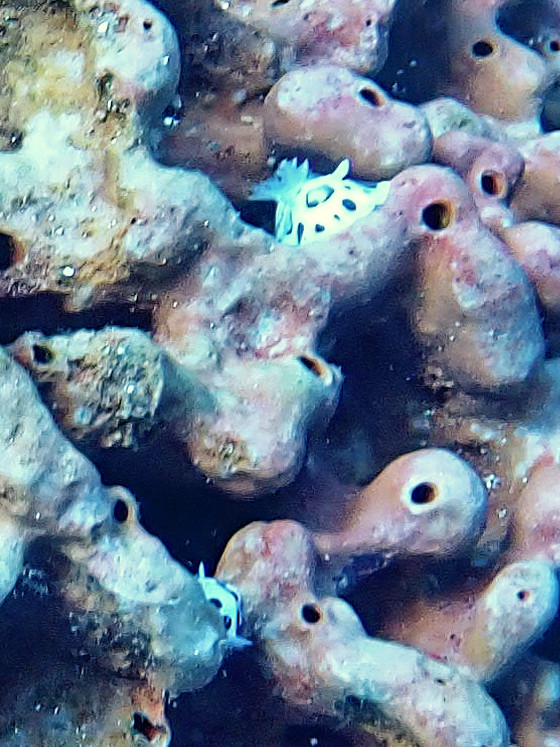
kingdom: Animalia
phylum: Mollusca
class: Gastropoda
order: Nudibranchia
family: Discodorididae
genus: Peltodoris
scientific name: Peltodoris atromaculata
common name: Swiss cow nudibranch
